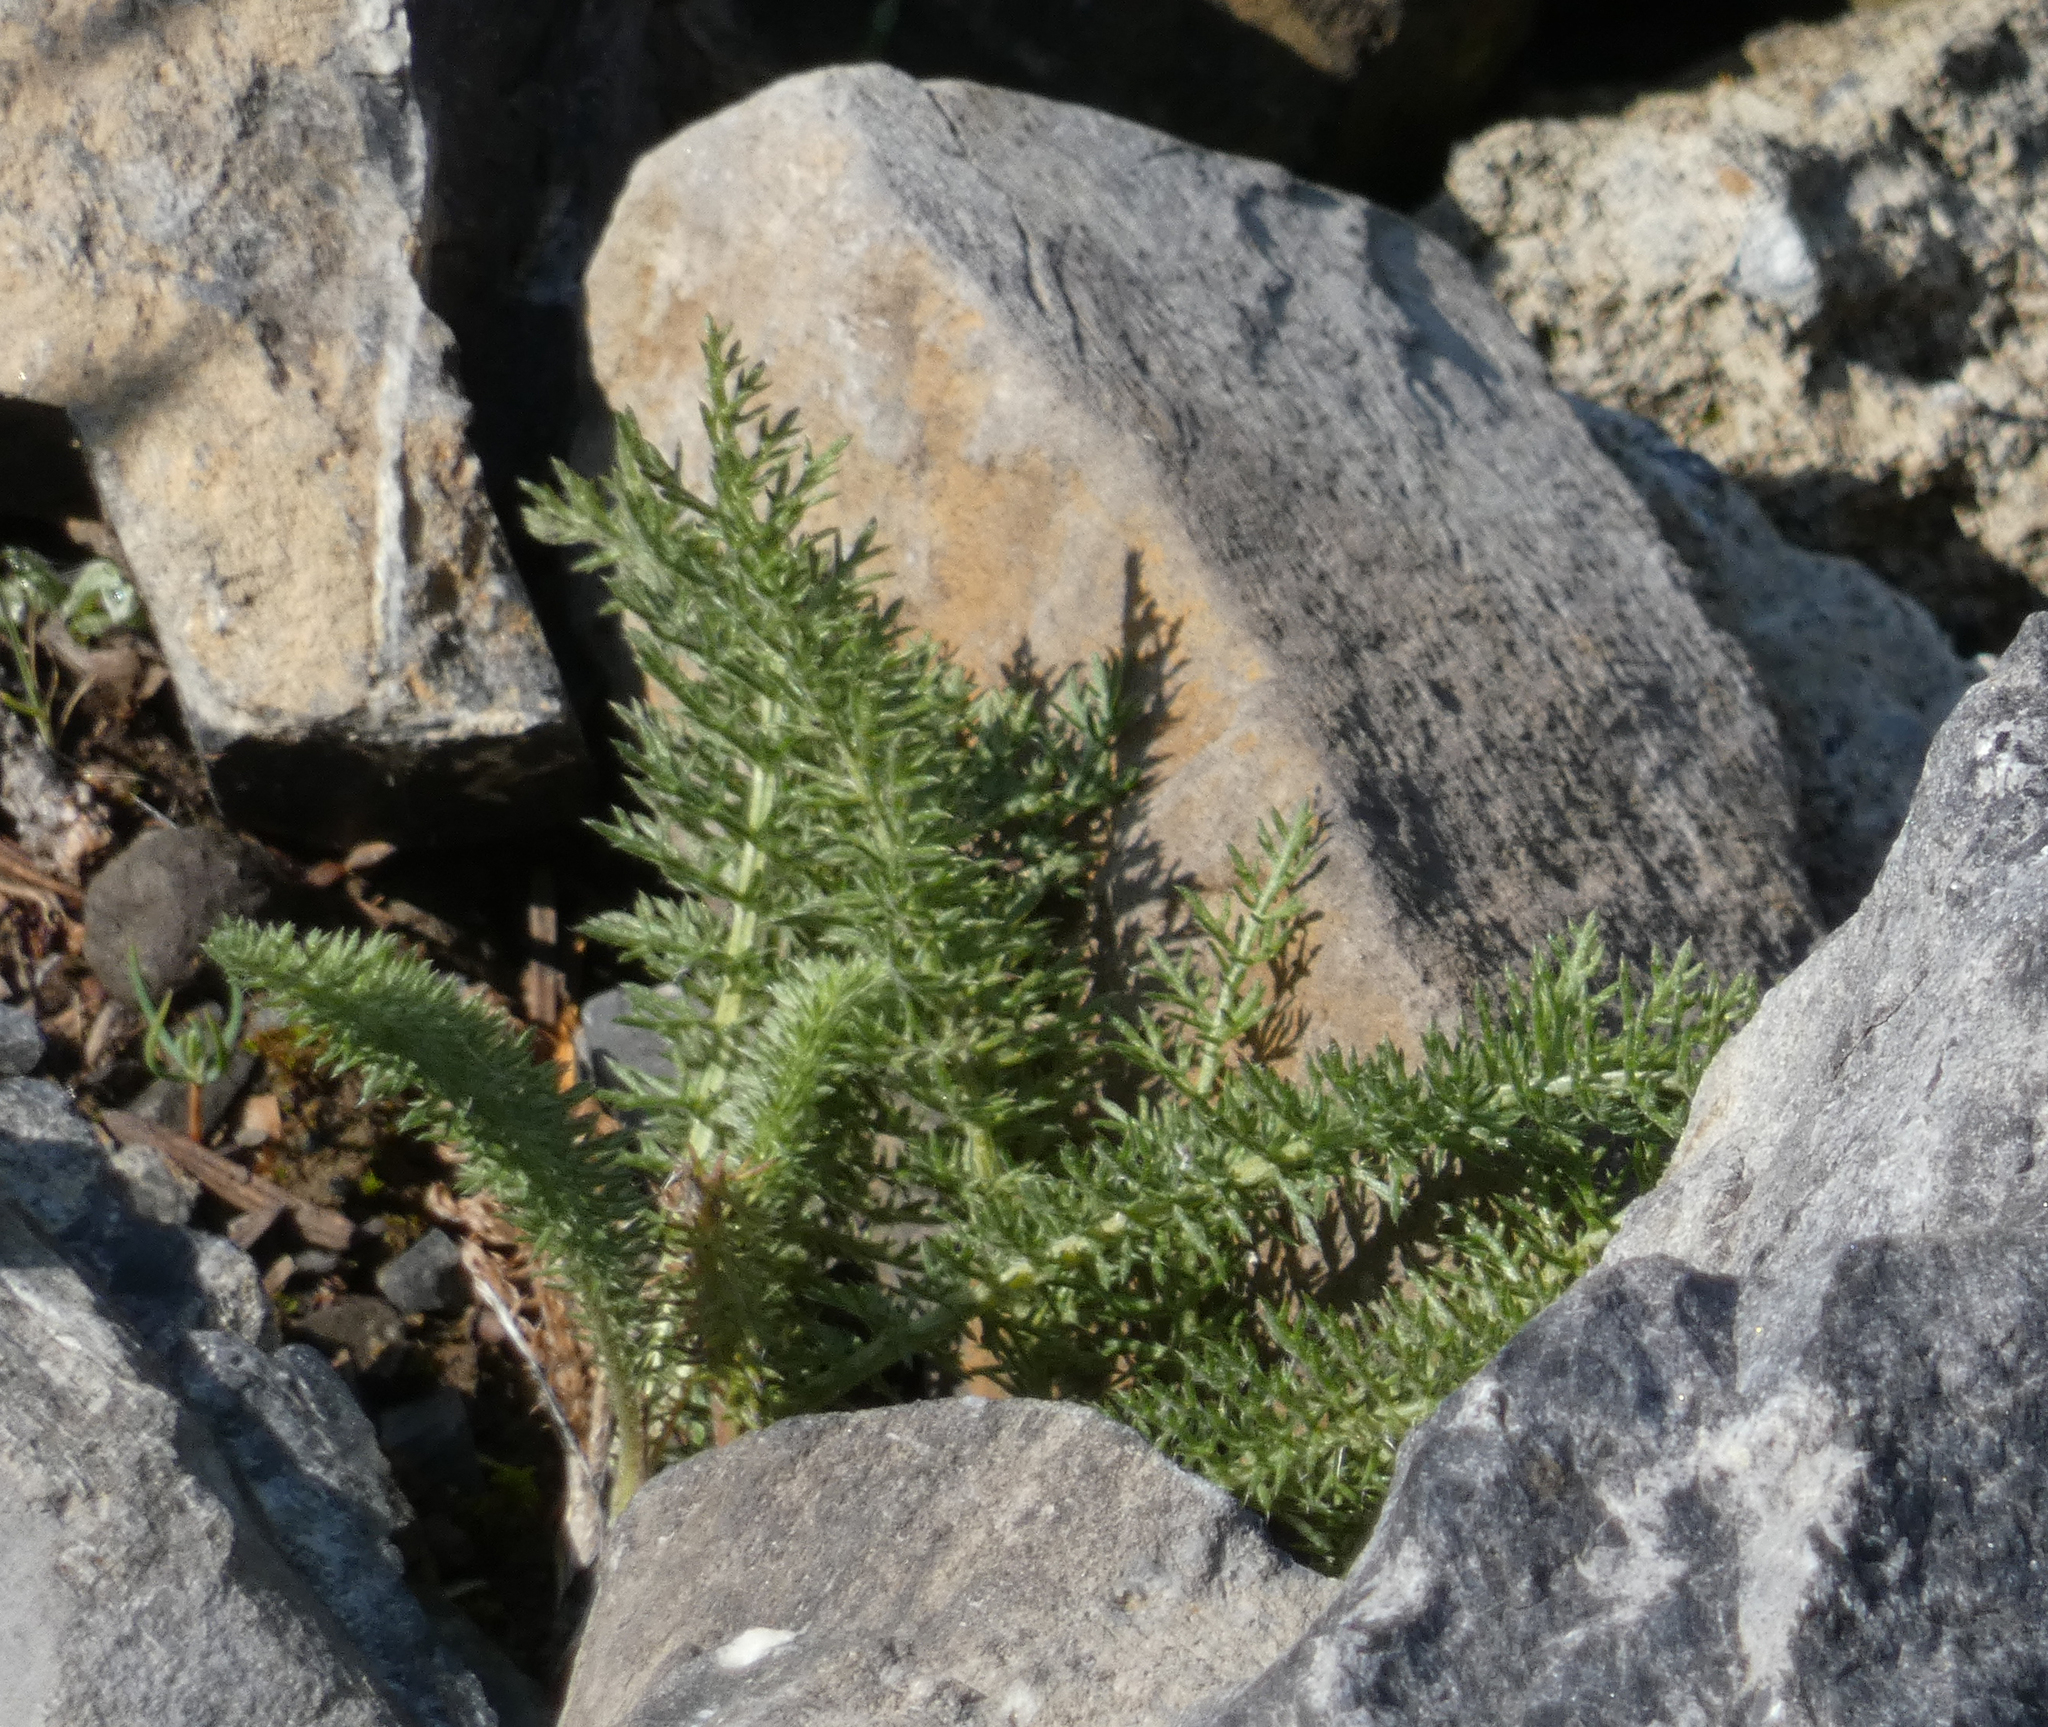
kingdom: Plantae
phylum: Tracheophyta
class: Magnoliopsida
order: Asterales
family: Asteraceae
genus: Achillea
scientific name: Achillea millefolium
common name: Yarrow
